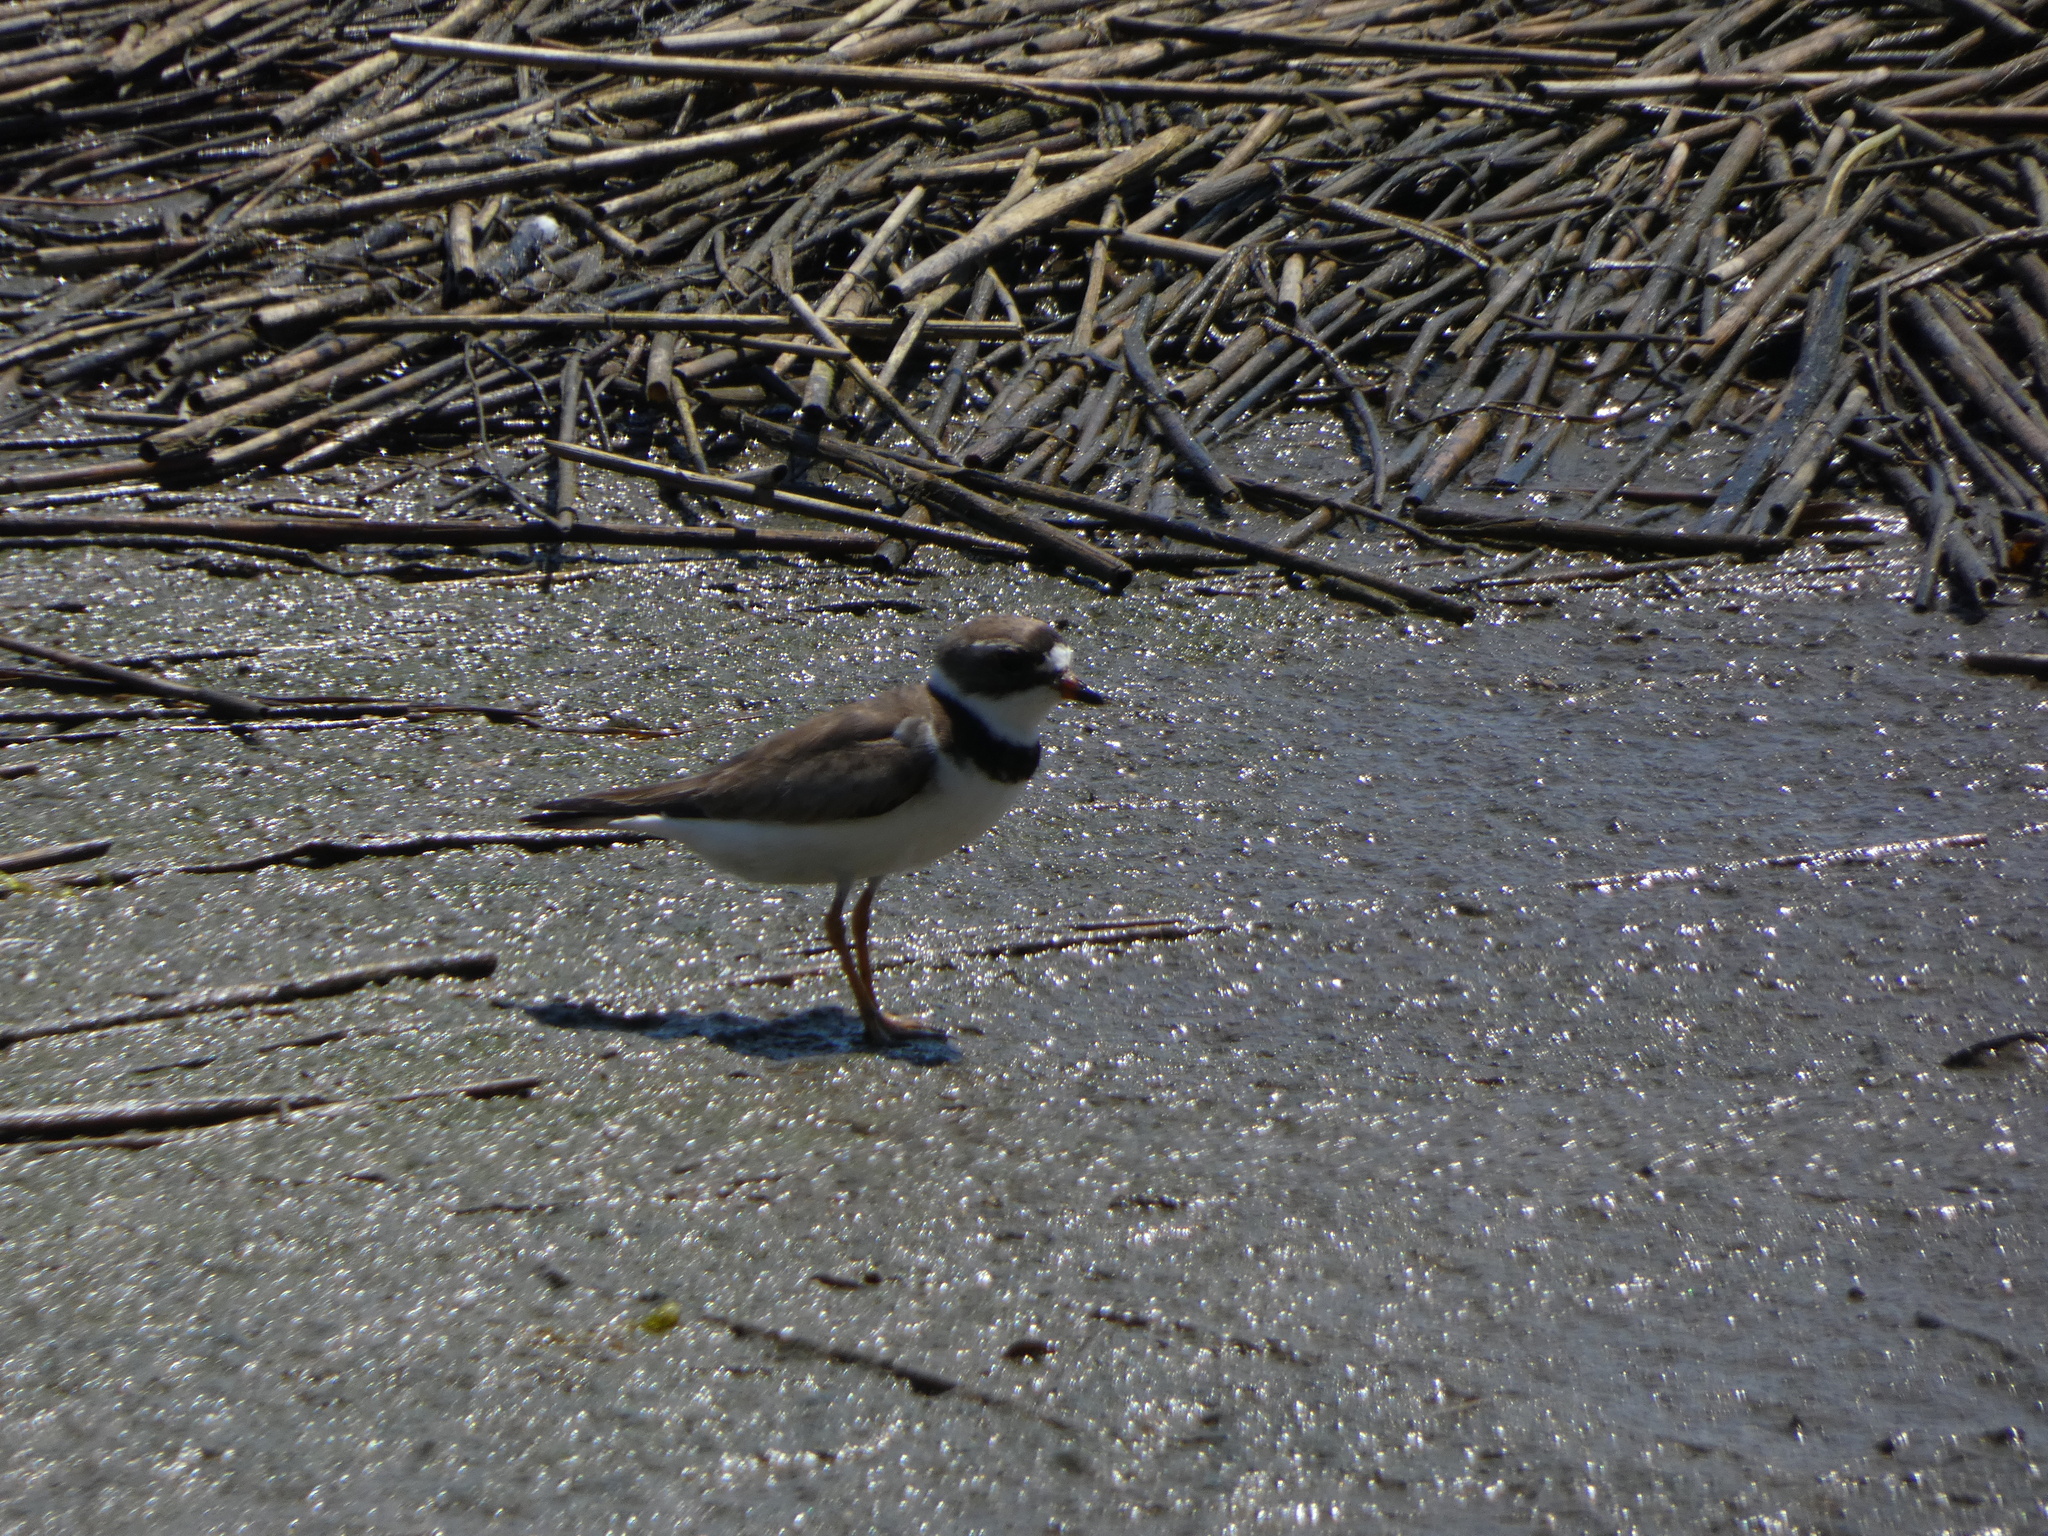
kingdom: Animalia
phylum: Chordata
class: Aves
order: Charadriiformes
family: Charadriidae
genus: Charadrius
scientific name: Charadrius semipalmatus
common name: Semipalmated plover
